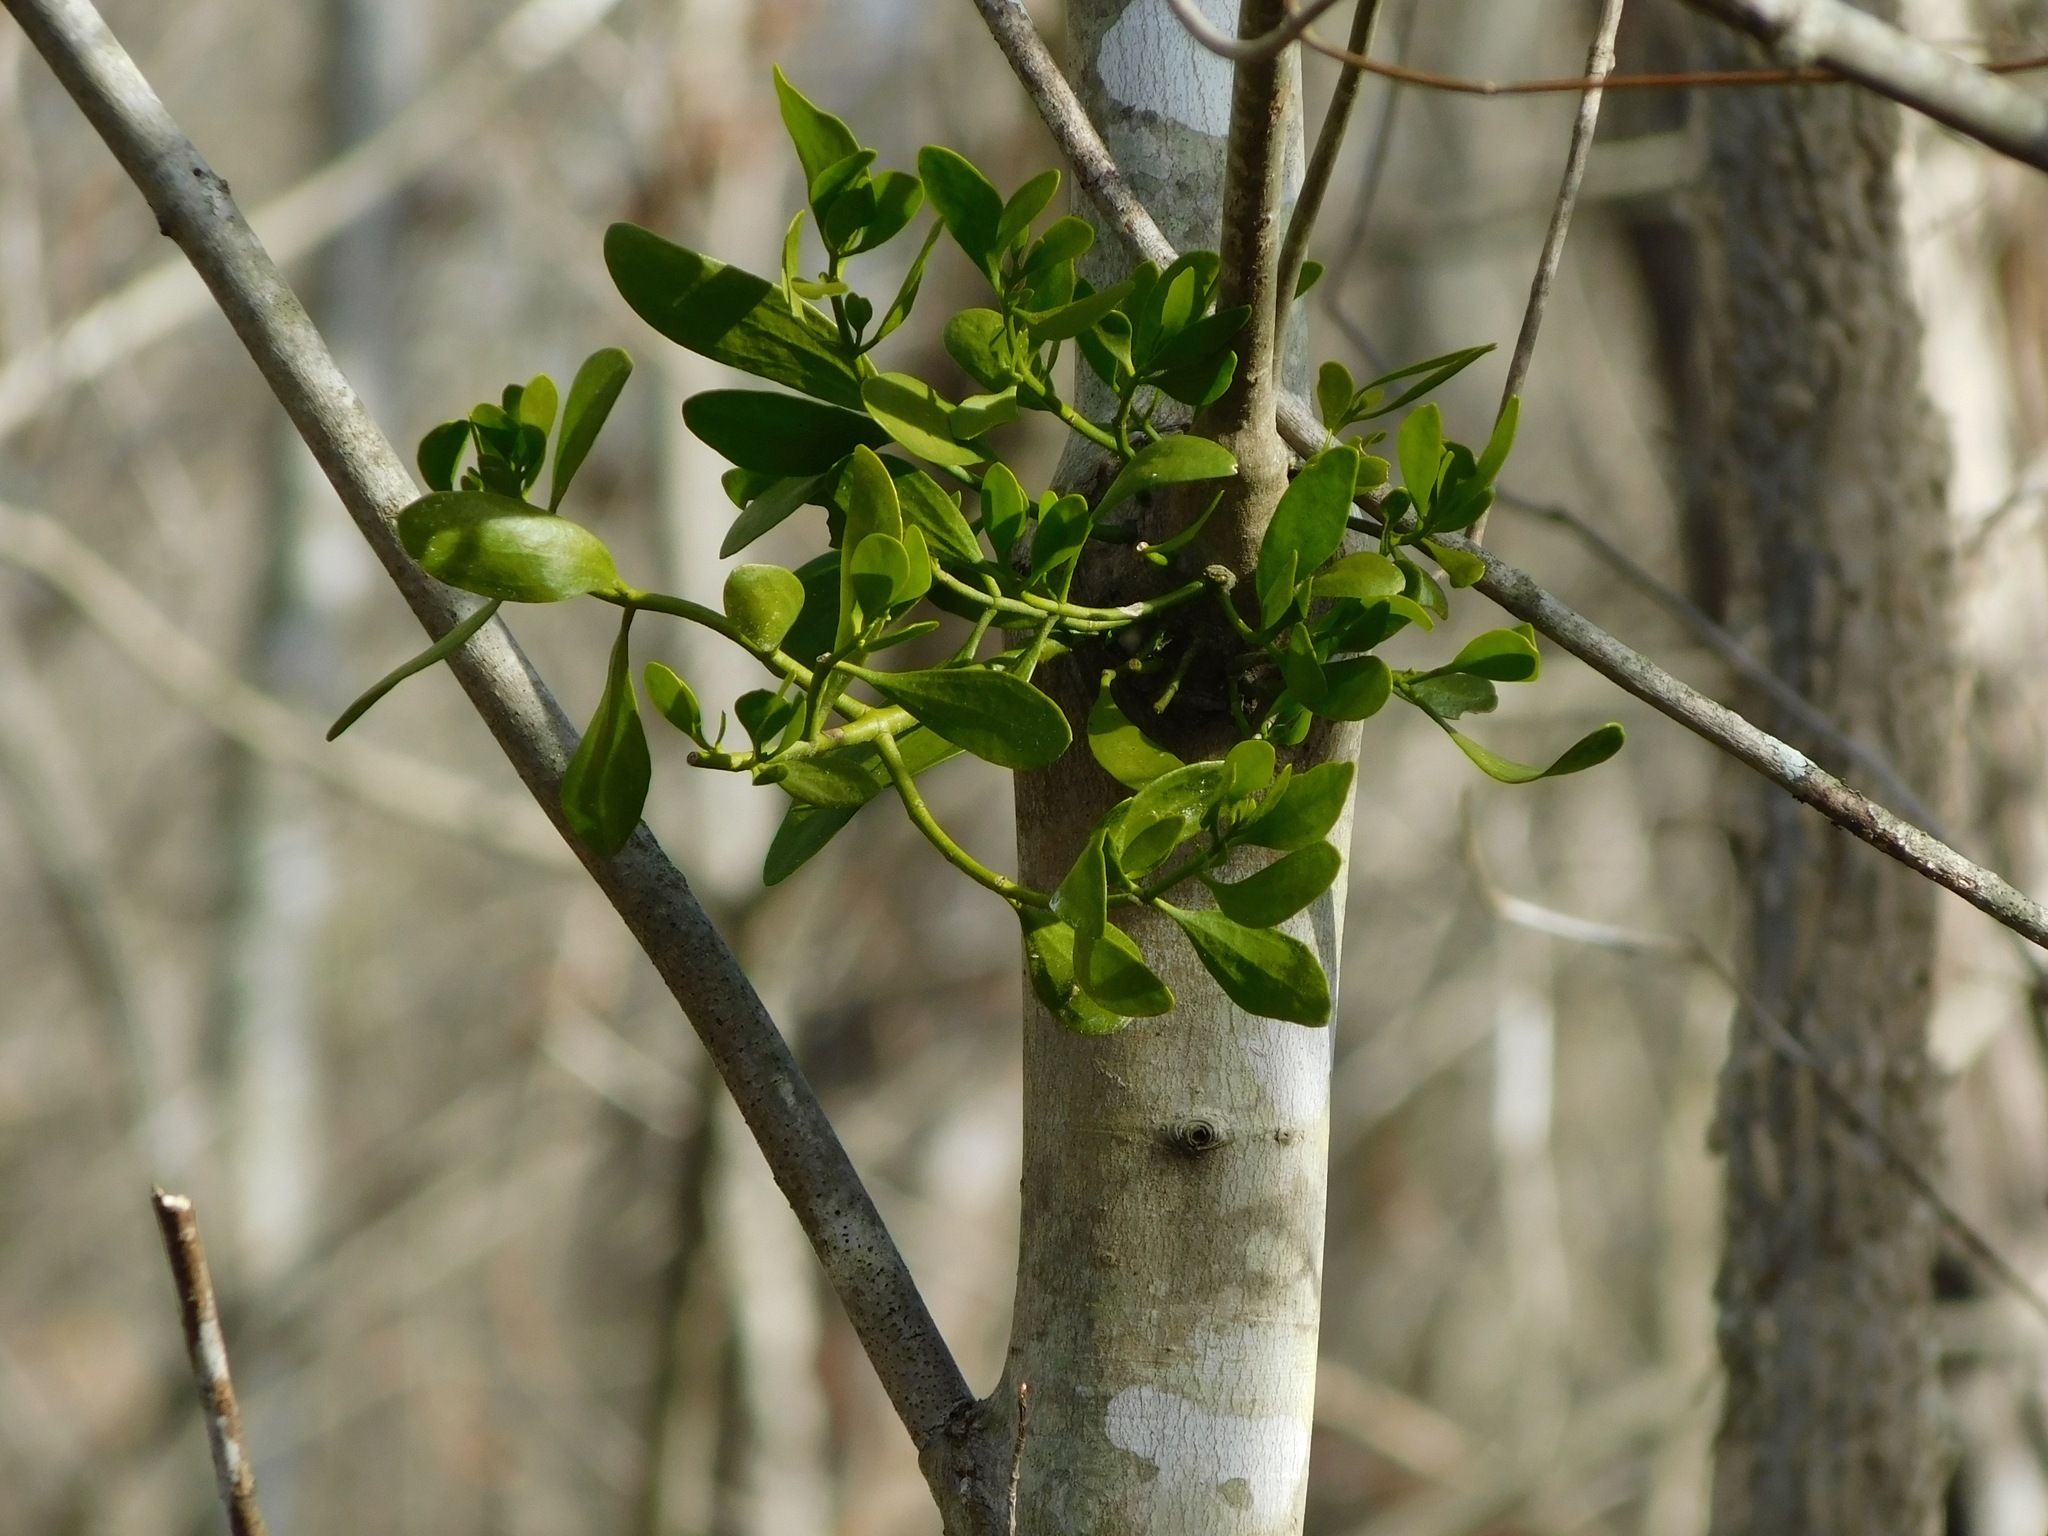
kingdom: Plantae
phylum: Tracheophyta
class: Magnoliopsida
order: Santalales
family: Viscaceae
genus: Phoradendron
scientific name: Phoradendron leucarpum
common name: Pacific mistletoe
